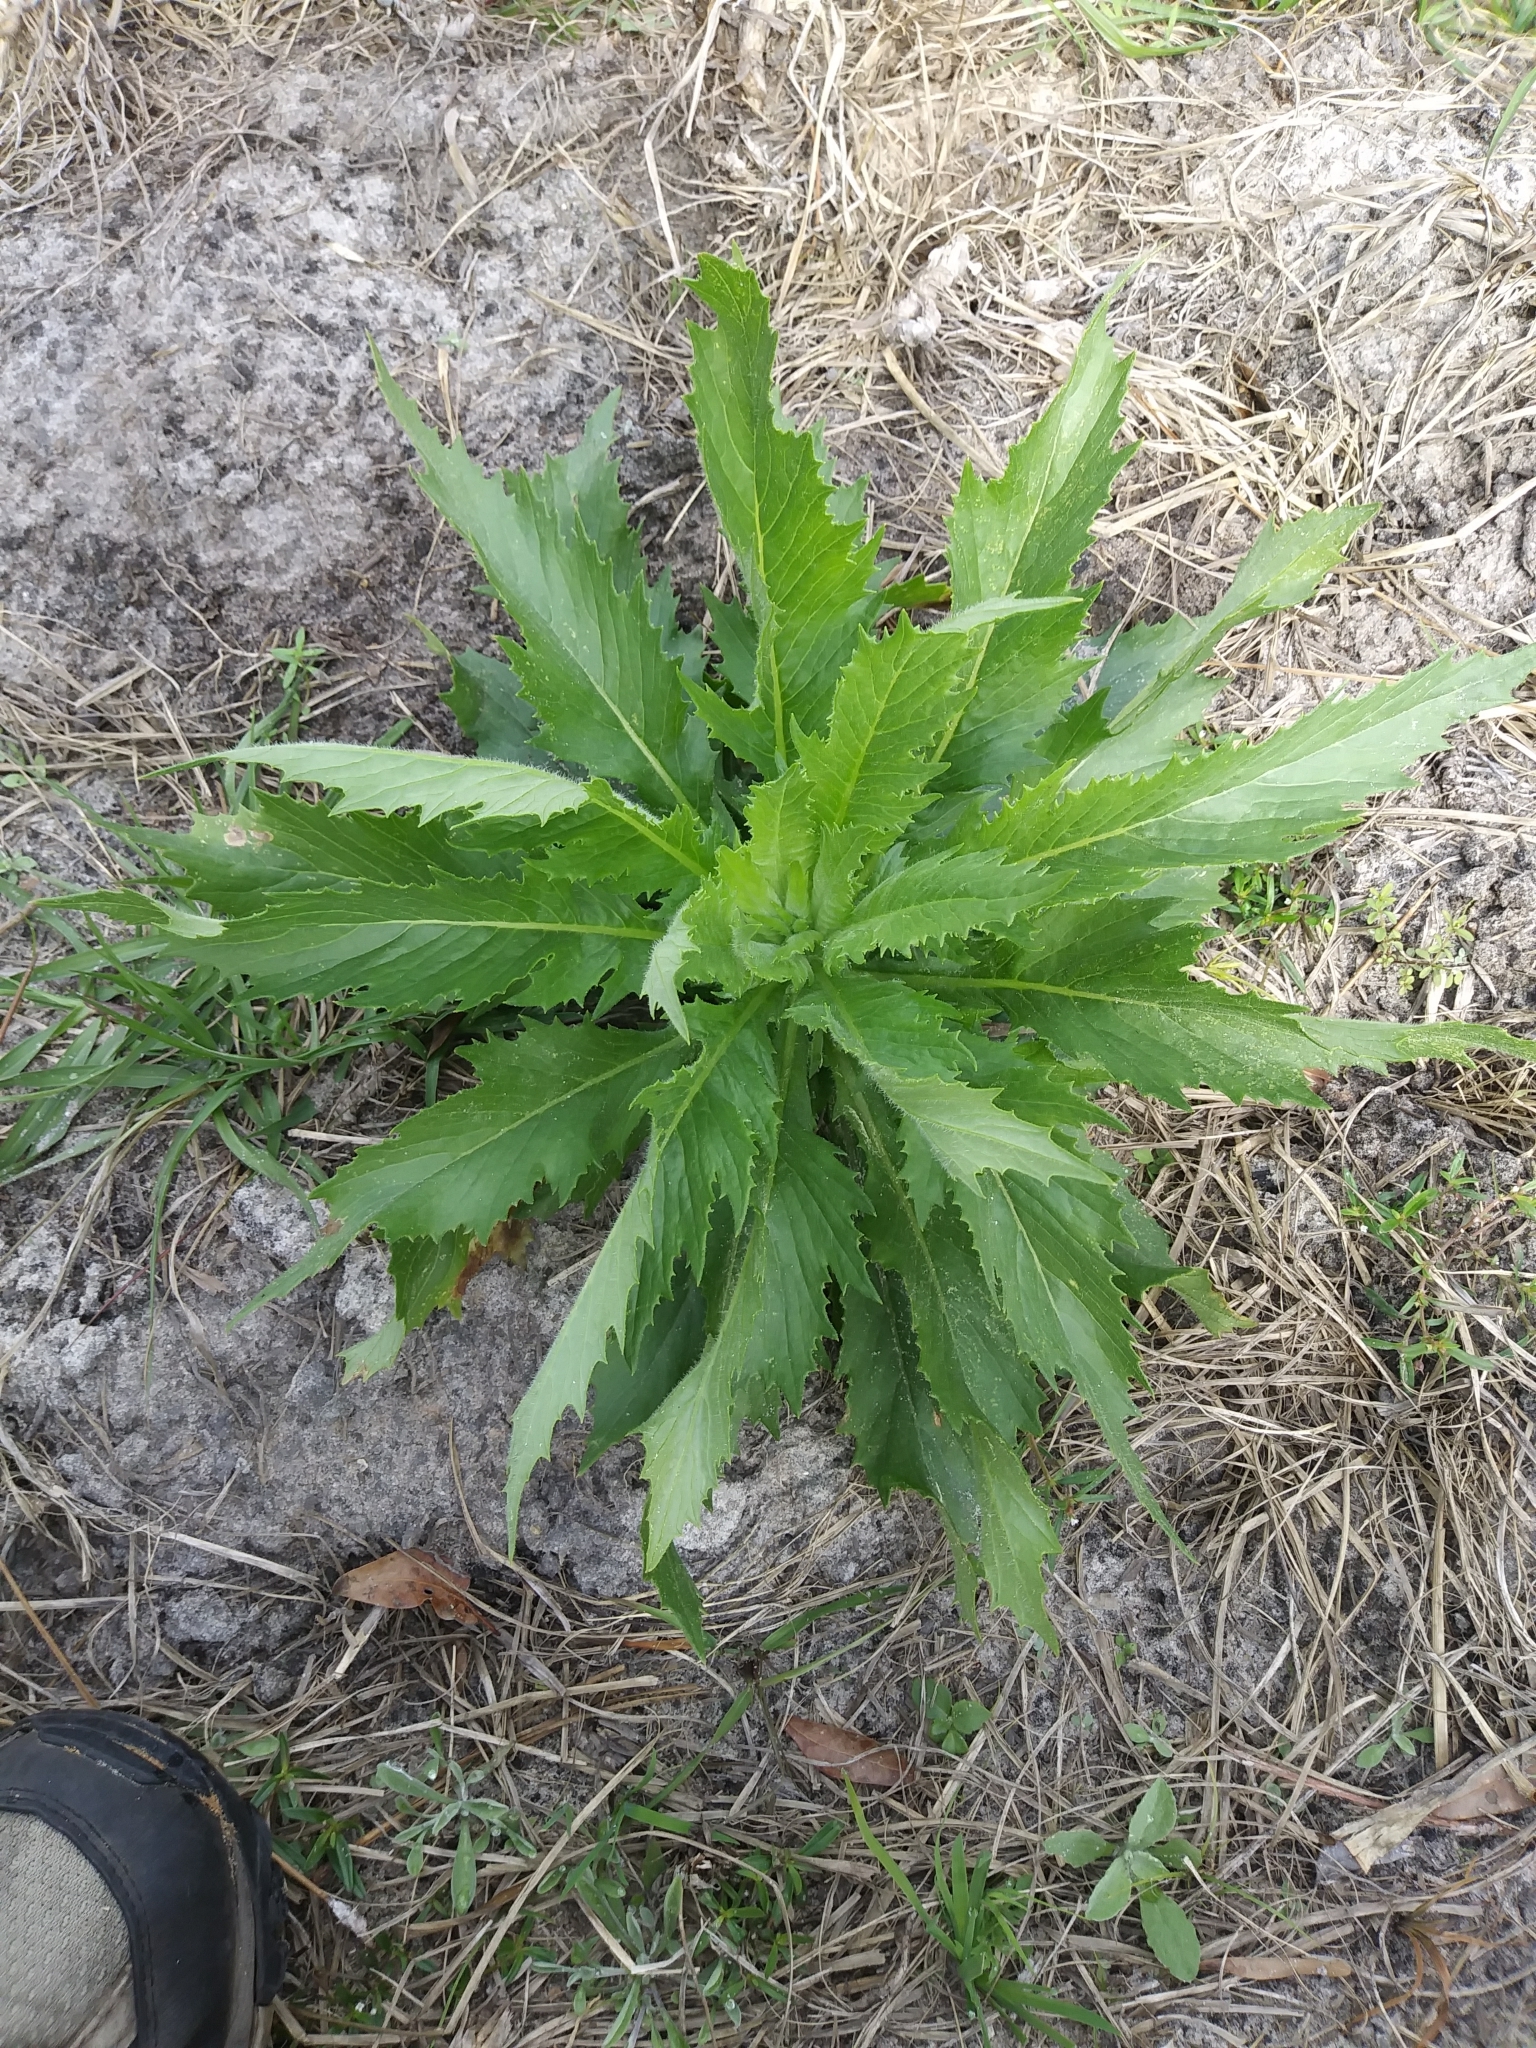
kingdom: Plantae
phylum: Tracheophyta
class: Magnoliopsida
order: Asterales
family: Asteraceae
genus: Erechtites
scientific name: Erechtites hieraciifolius
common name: American burnweed
